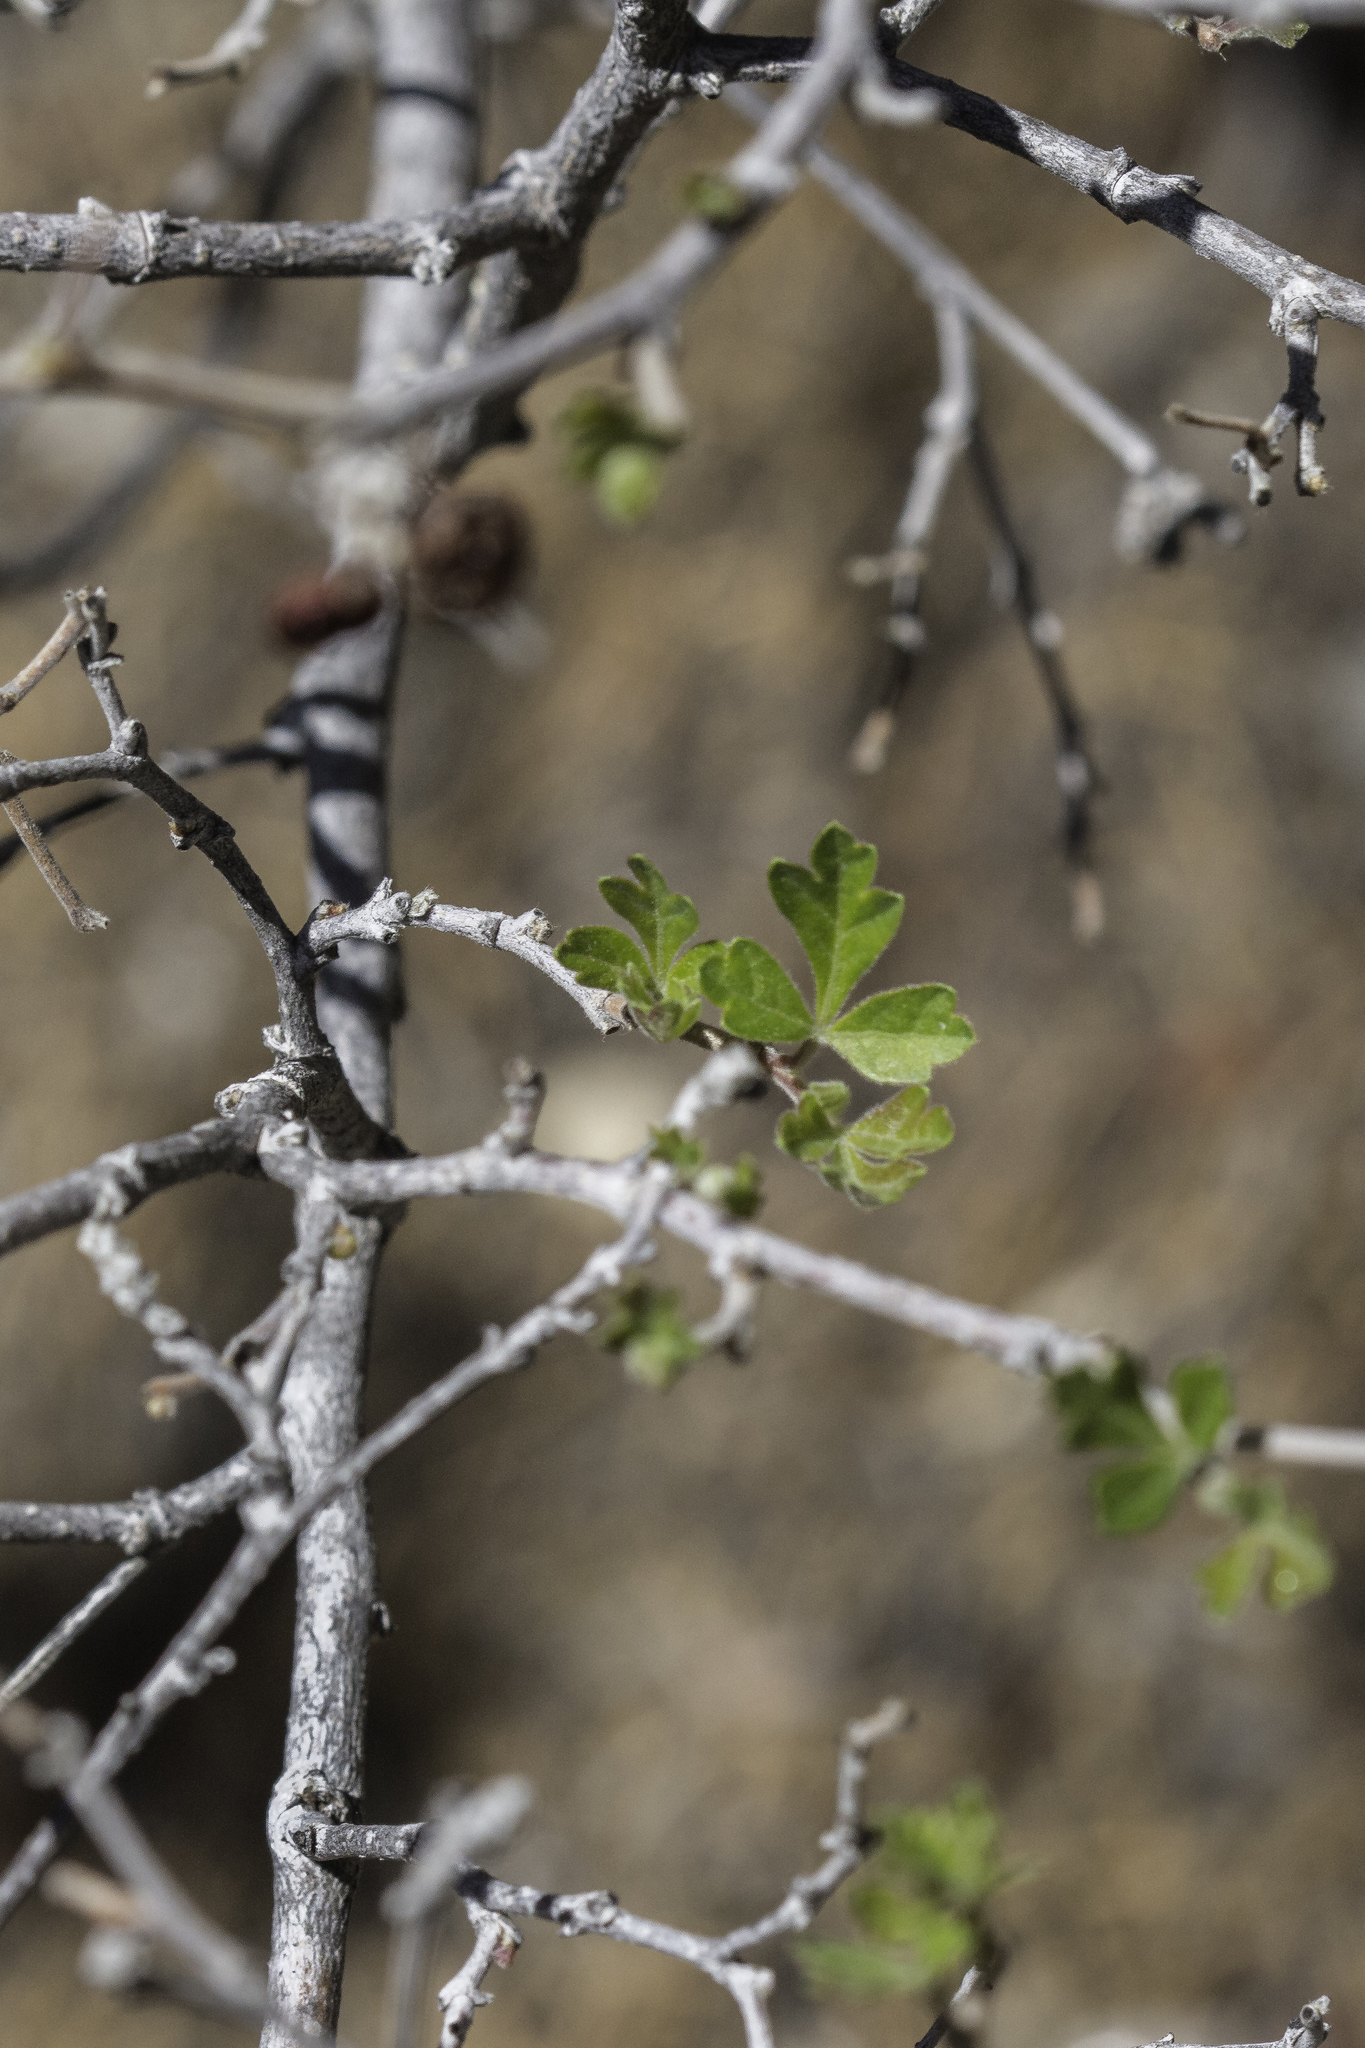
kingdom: Plantae
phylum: Tracheophyta
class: Magnoliopsida
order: Sapindales
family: Anacardiaceae
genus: Rhus
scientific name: Rhus trilobata
